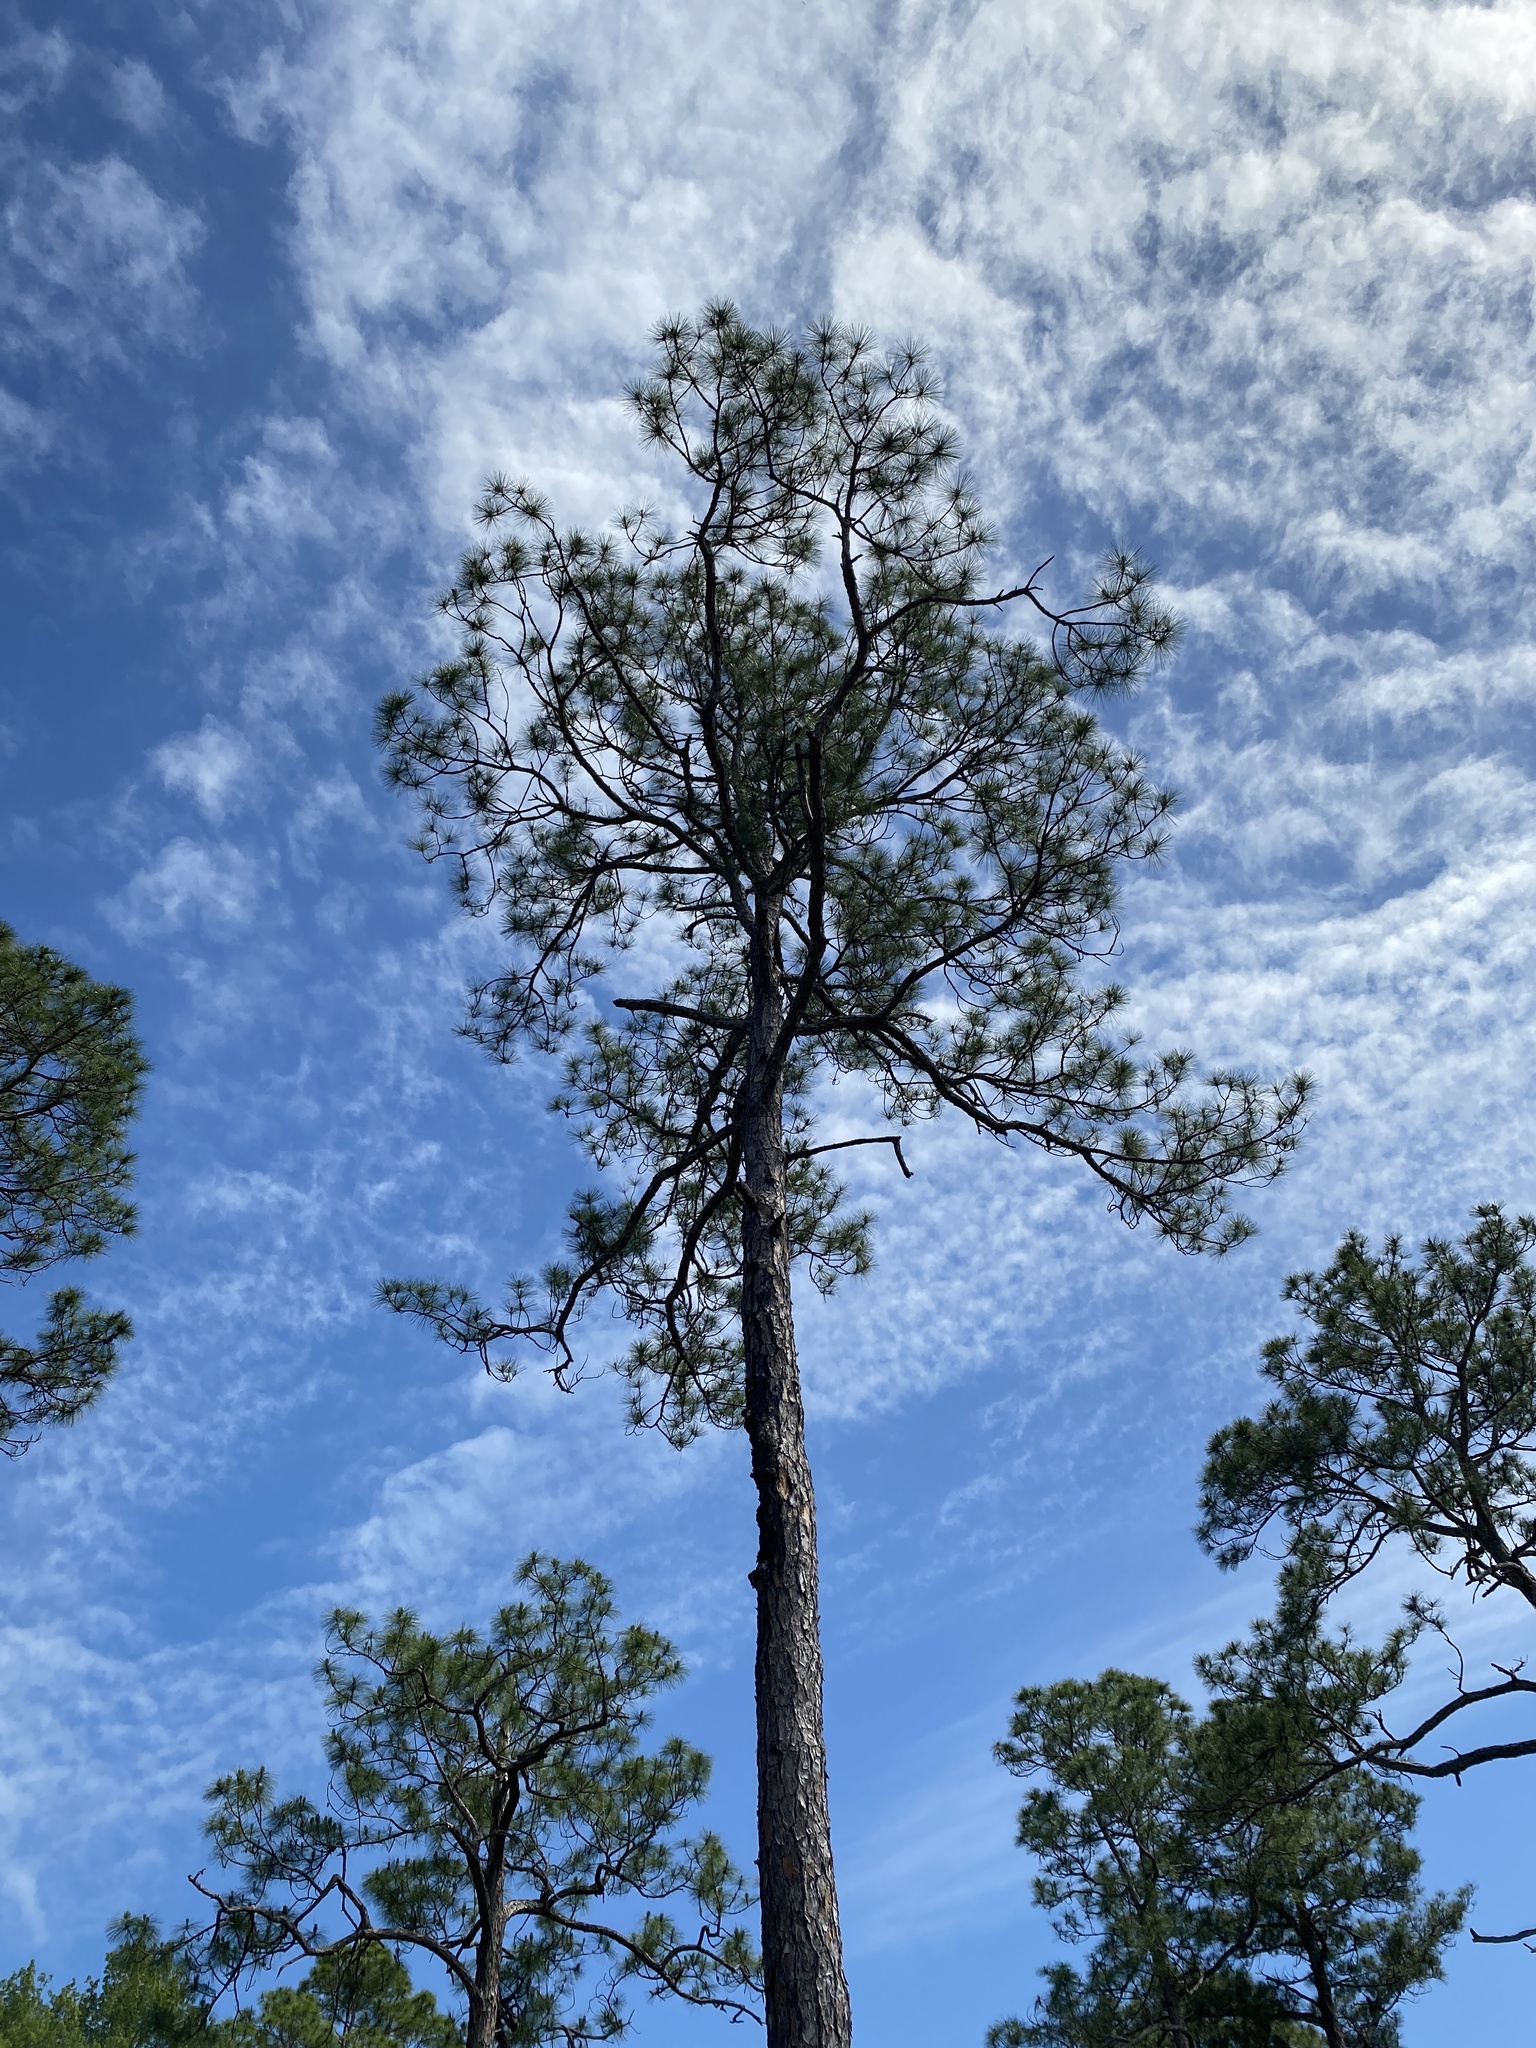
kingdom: Plantae
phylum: Tracheophyta
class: Pinopsida
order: Pinales
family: Pinaceae
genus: Pinus
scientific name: Pinus elliottii
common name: Slash pine
